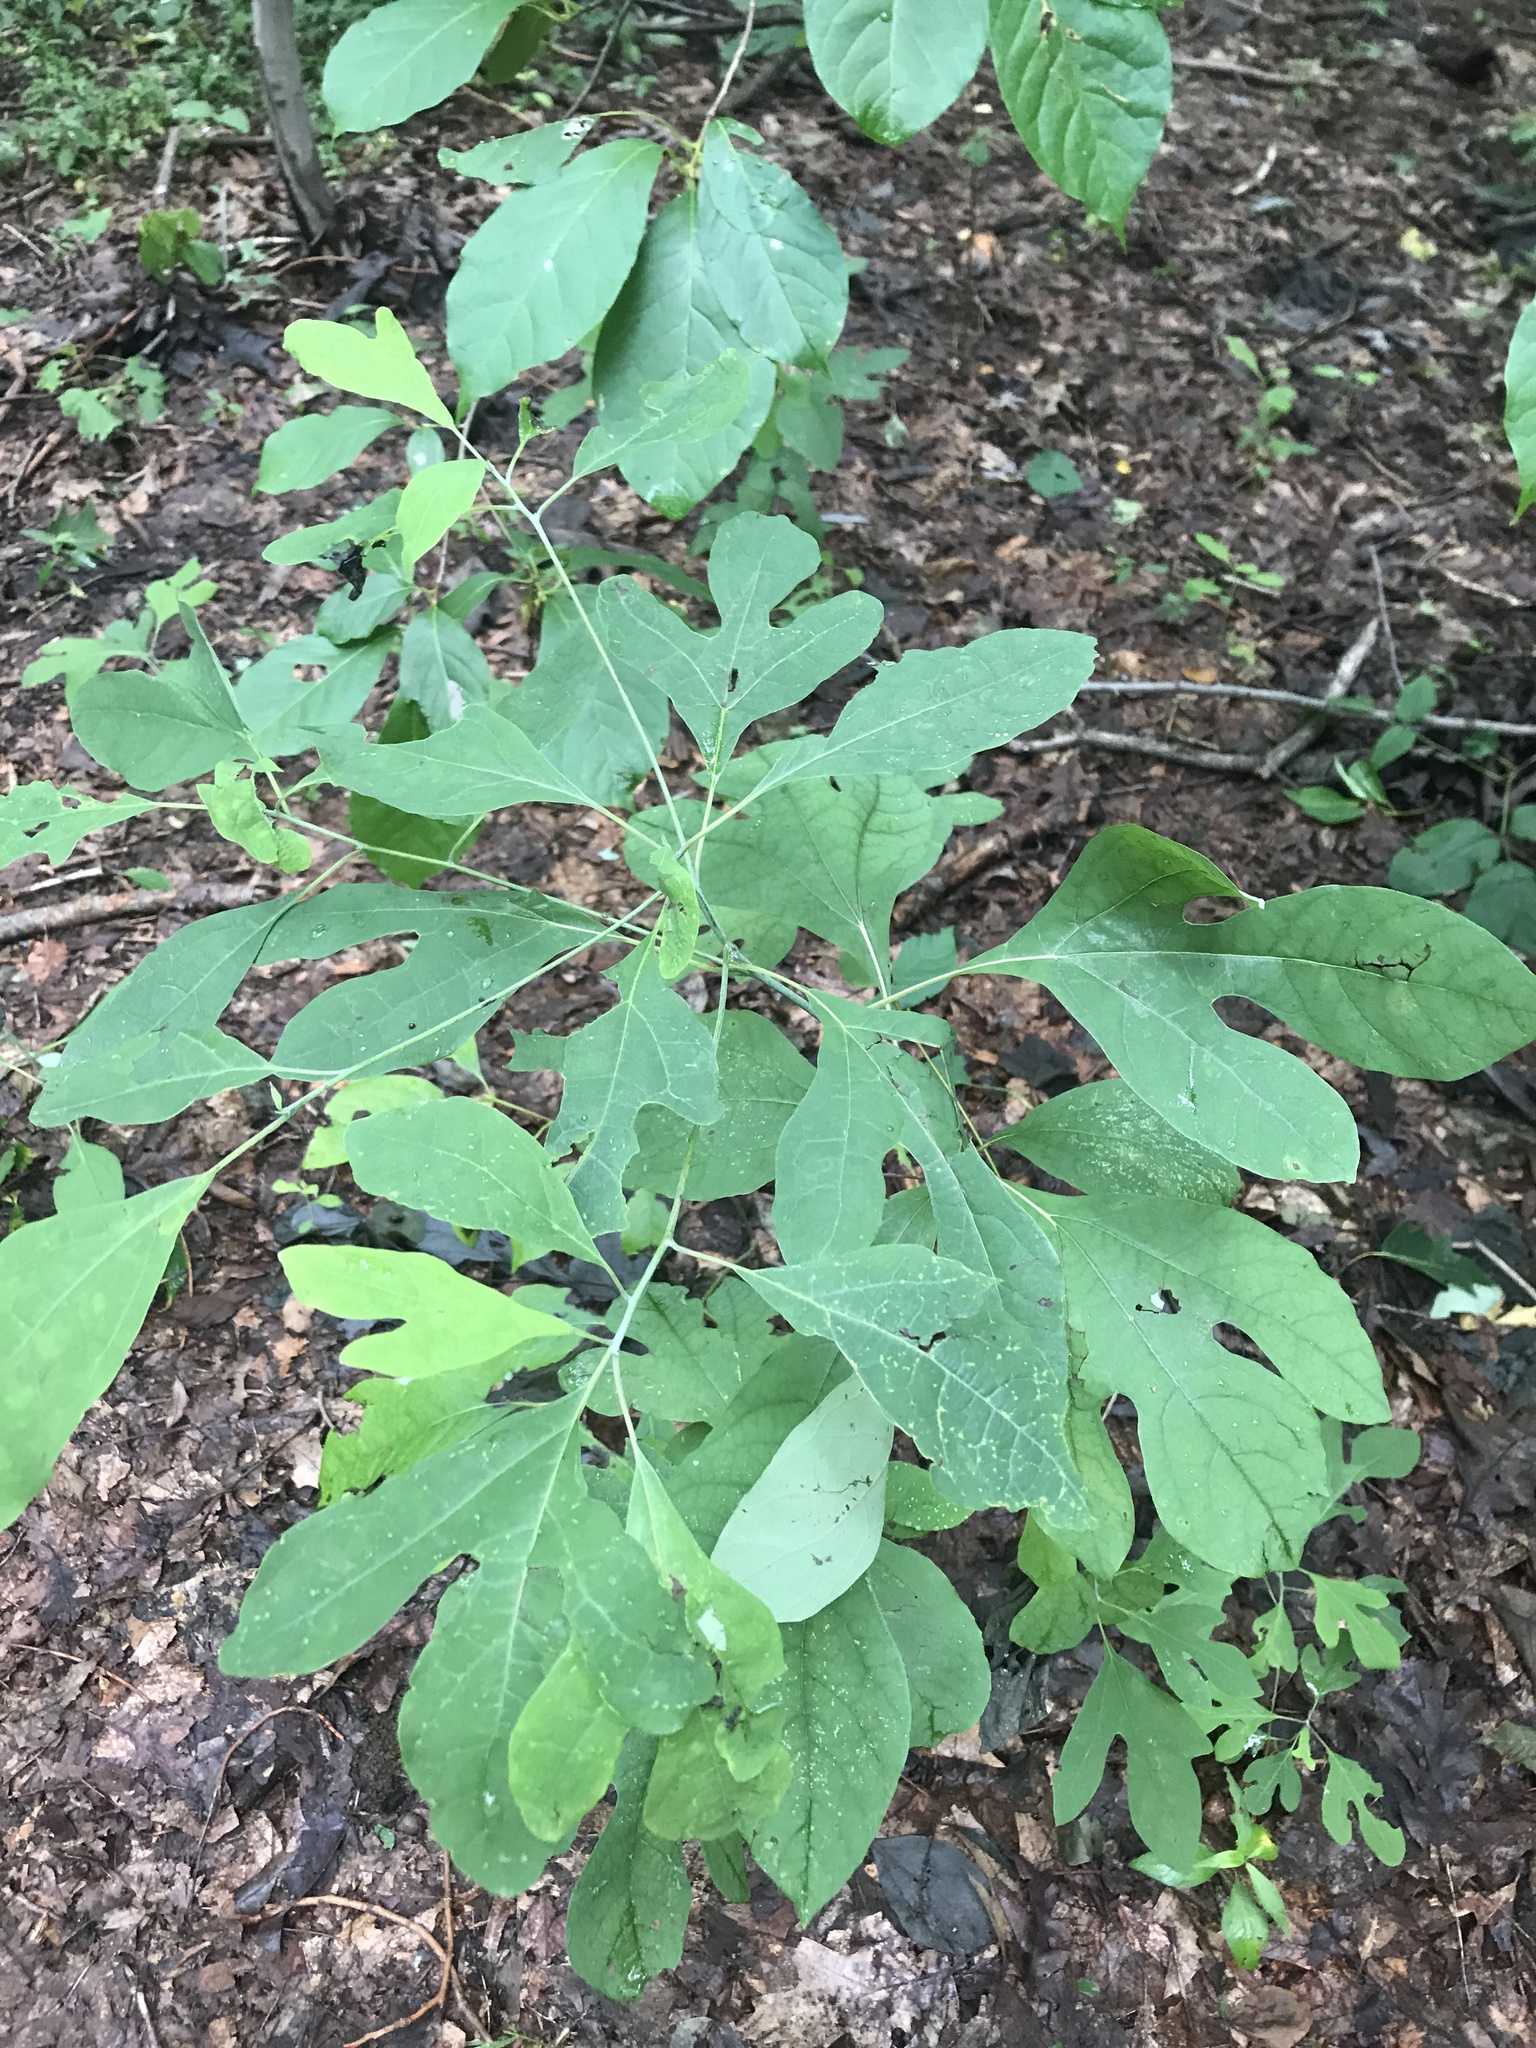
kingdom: Plantae
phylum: Tracheophyta
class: Magnoliopsida
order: Laurales
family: Lauraceae
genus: Sassafras
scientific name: Sassafras albidum
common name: Sassafras
